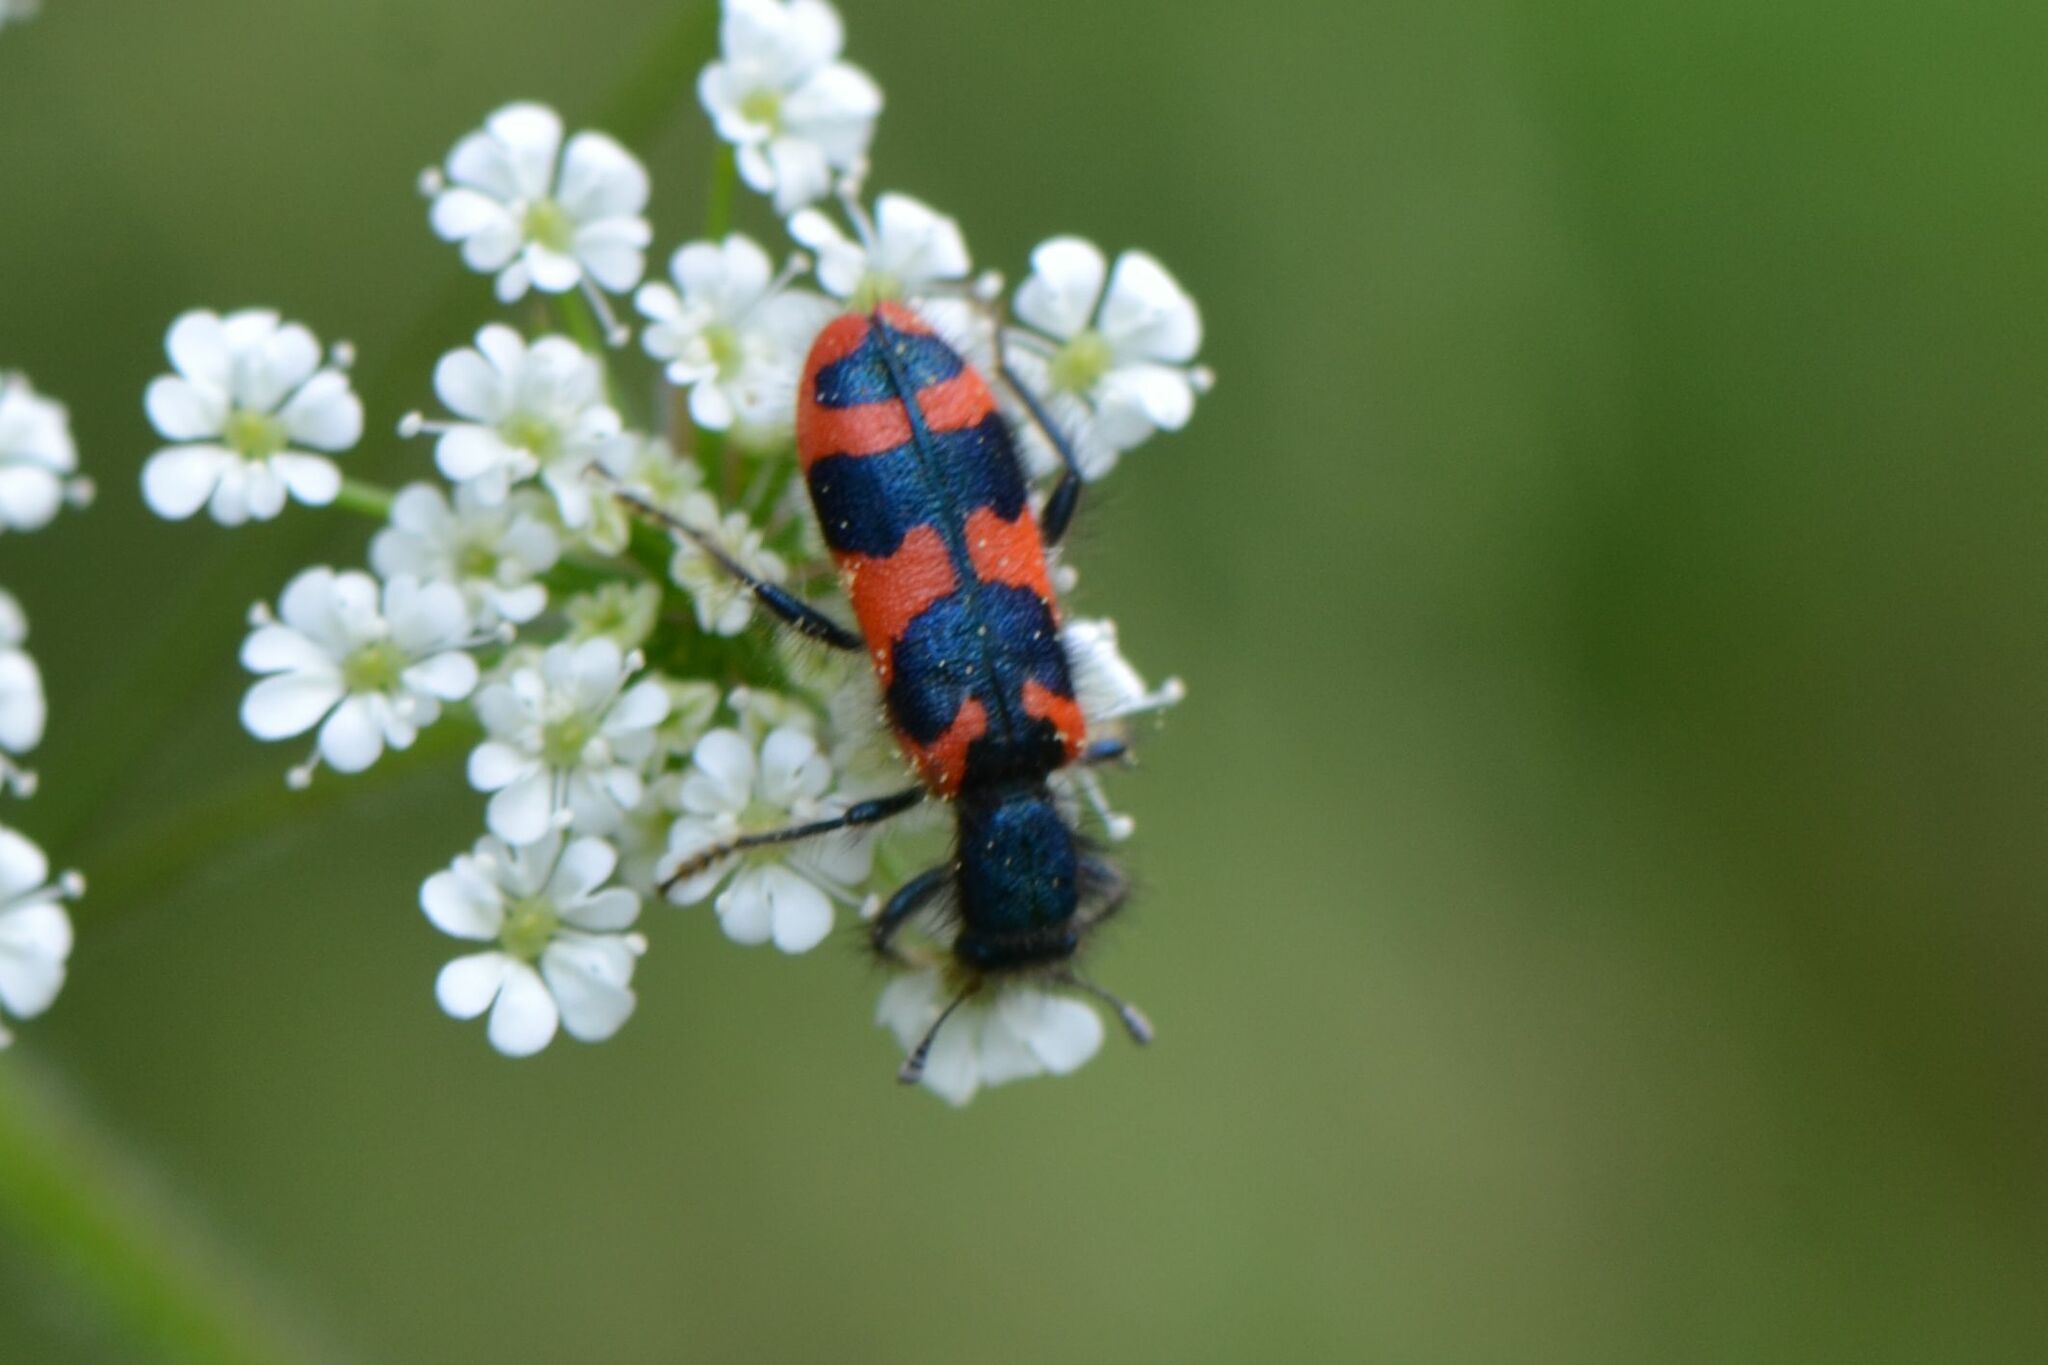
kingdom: Animalia
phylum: Arthropoda
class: Insecta
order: Coleoptera
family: Cleridae
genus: Trichodes
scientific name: Trichodes alvearius
